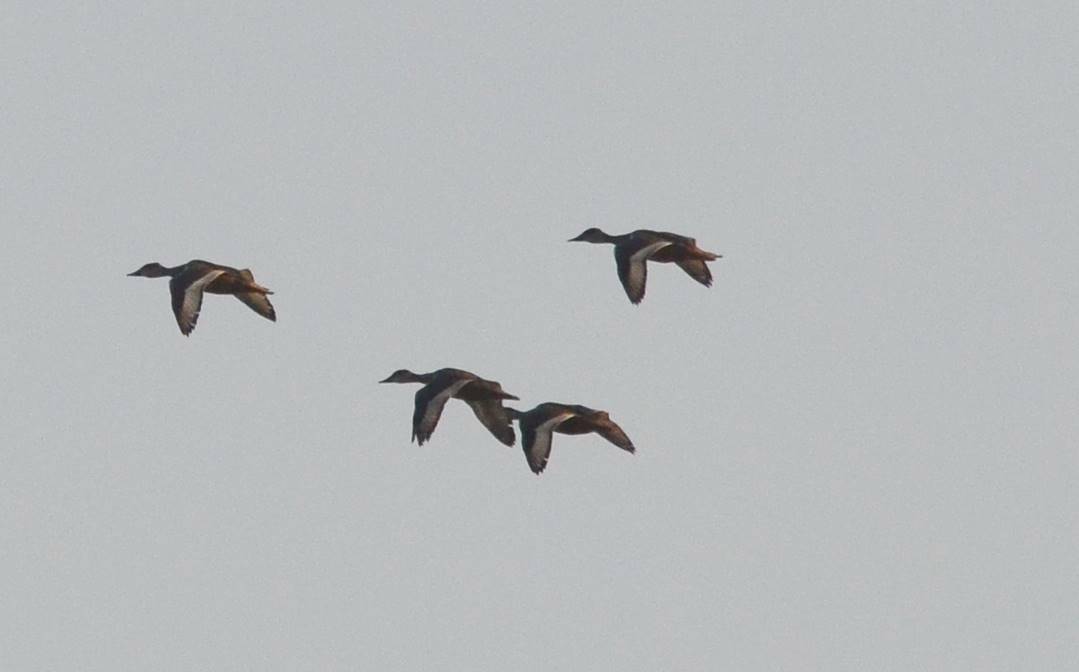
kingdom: Animalia
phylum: Chordata
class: Aves
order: Anseriformes
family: Anatidae
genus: Aythya
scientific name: Aythya nyroca
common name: Ferruginous duck
